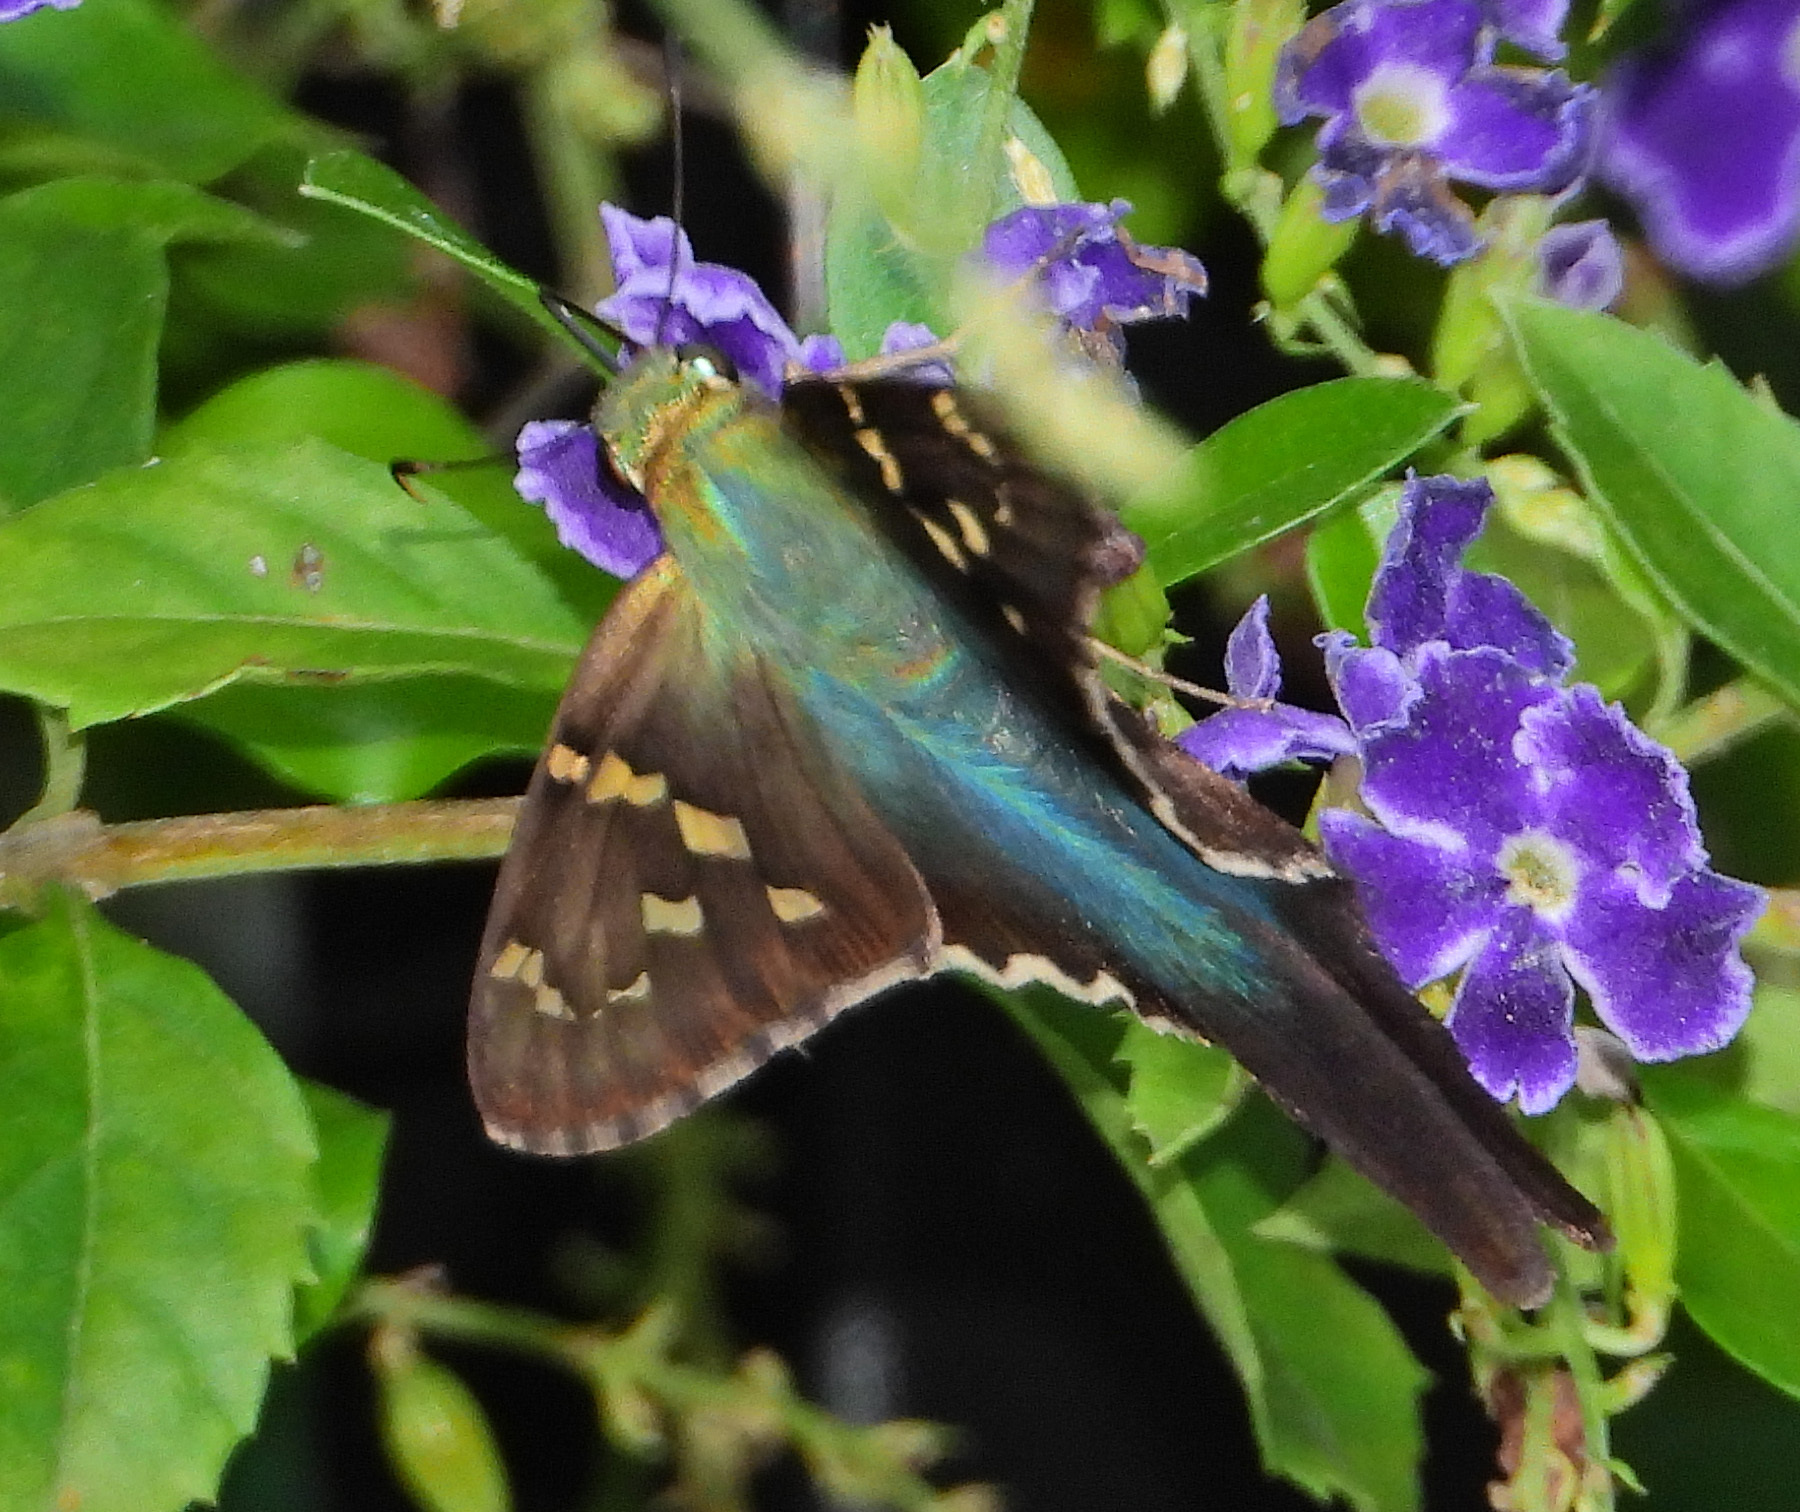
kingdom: Animalia
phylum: Arthropoda
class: Insecta
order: Lepidoptera
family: Hesperiidae
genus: Urbanus
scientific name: Urbanus proteus
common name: Long-tailed skipper
